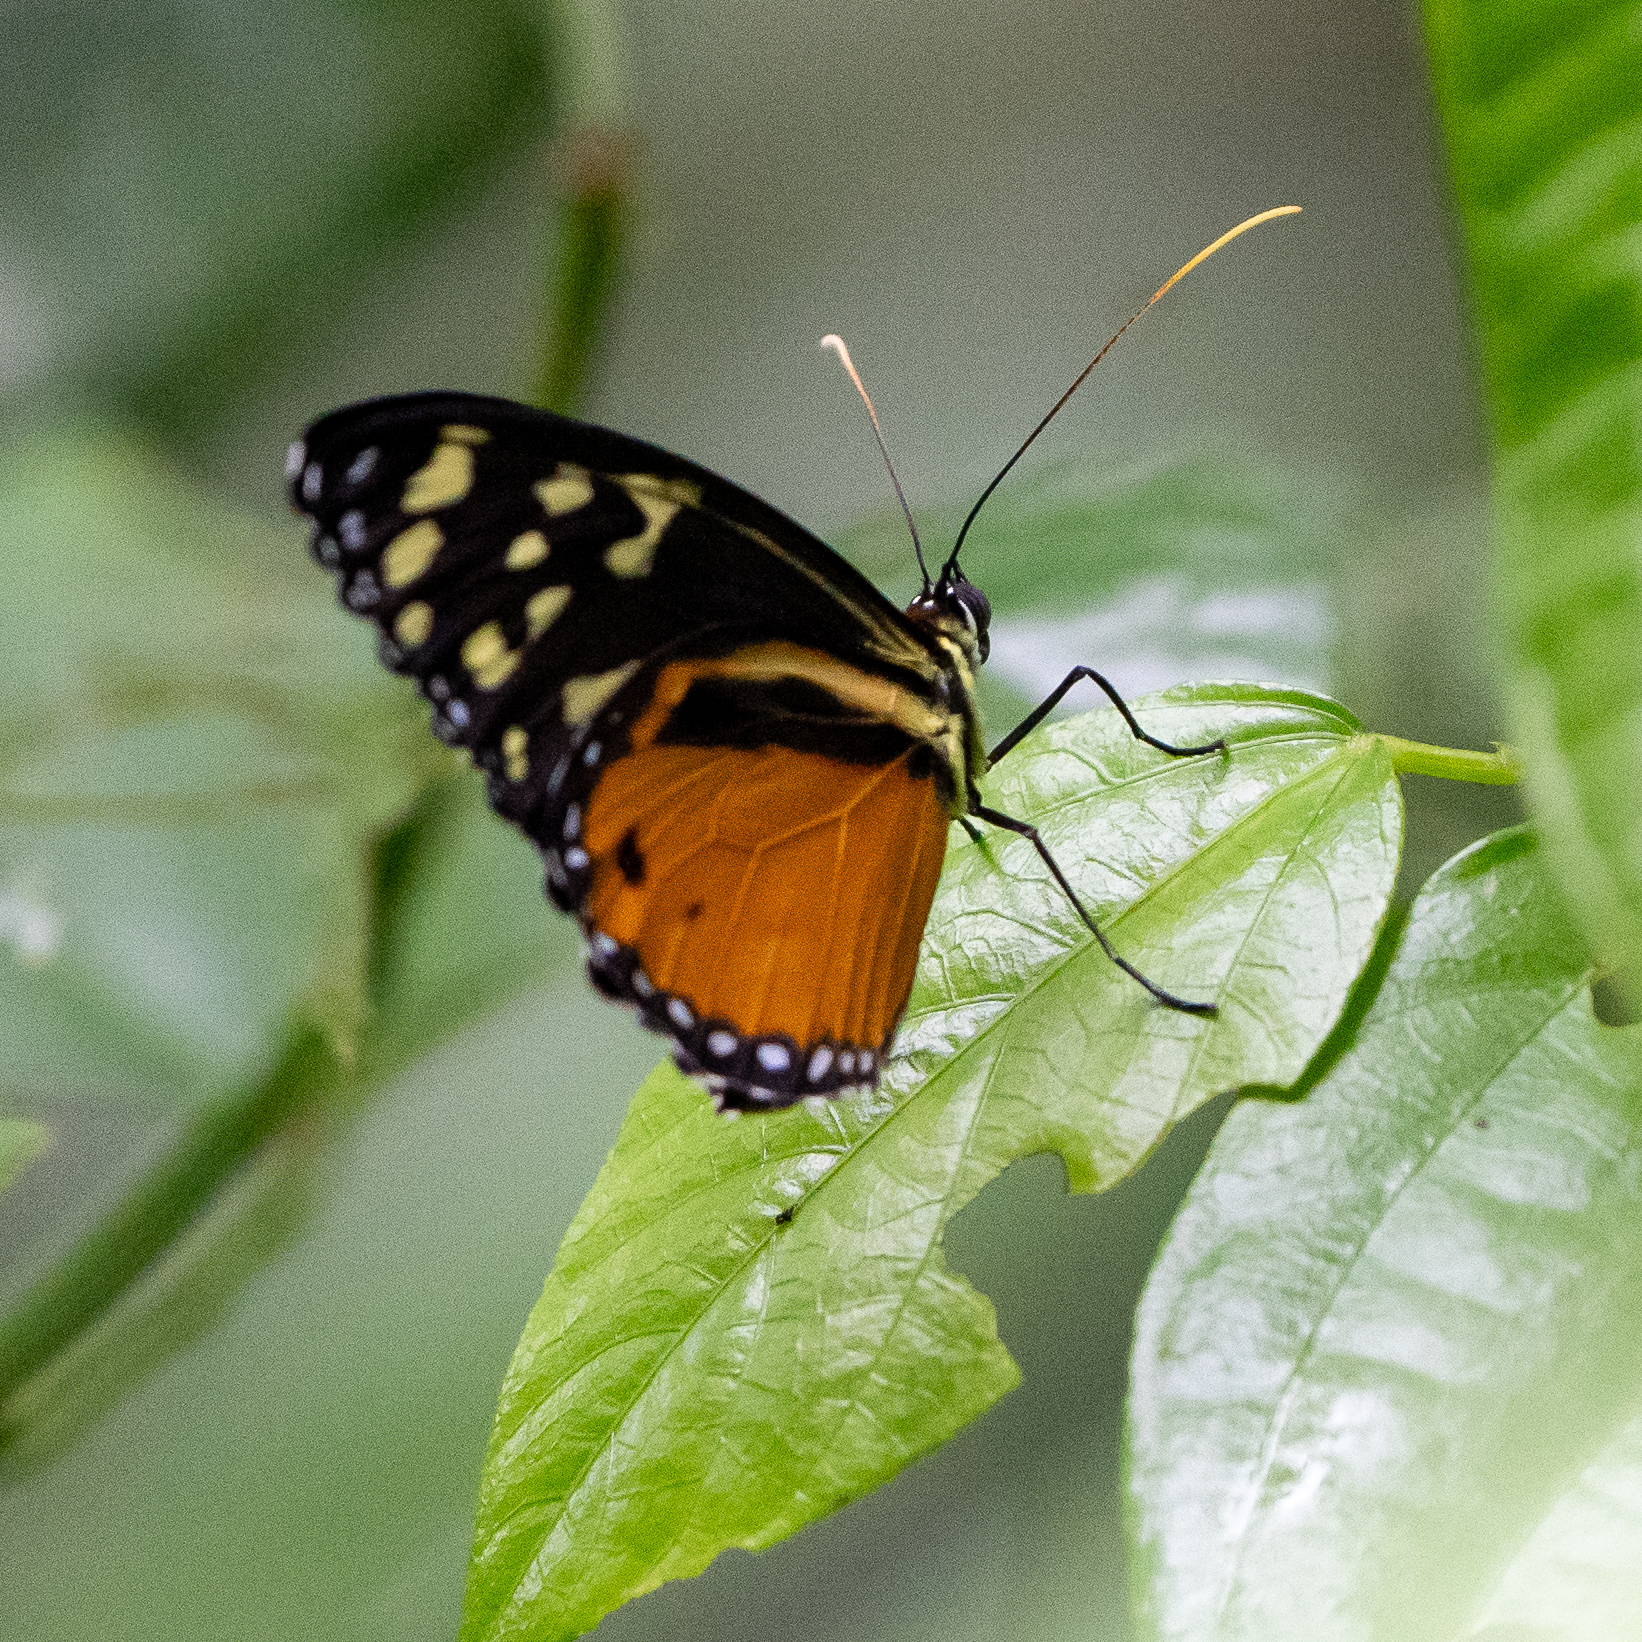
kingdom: Animalia
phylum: Arthropoda
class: Insecta
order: Lepidoptera
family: Nymphalidae
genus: Tithorea
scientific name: Tithorea tarricina
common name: Cream-spotted tigerwing
